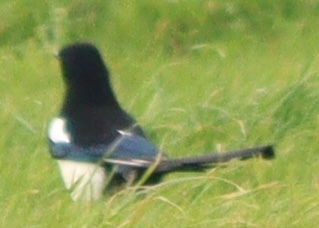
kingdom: Animalia
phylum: Chordata
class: Aves
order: Passeriformes
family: Corvidae
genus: Pica
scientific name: Pica pica
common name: Eurasian magpie
